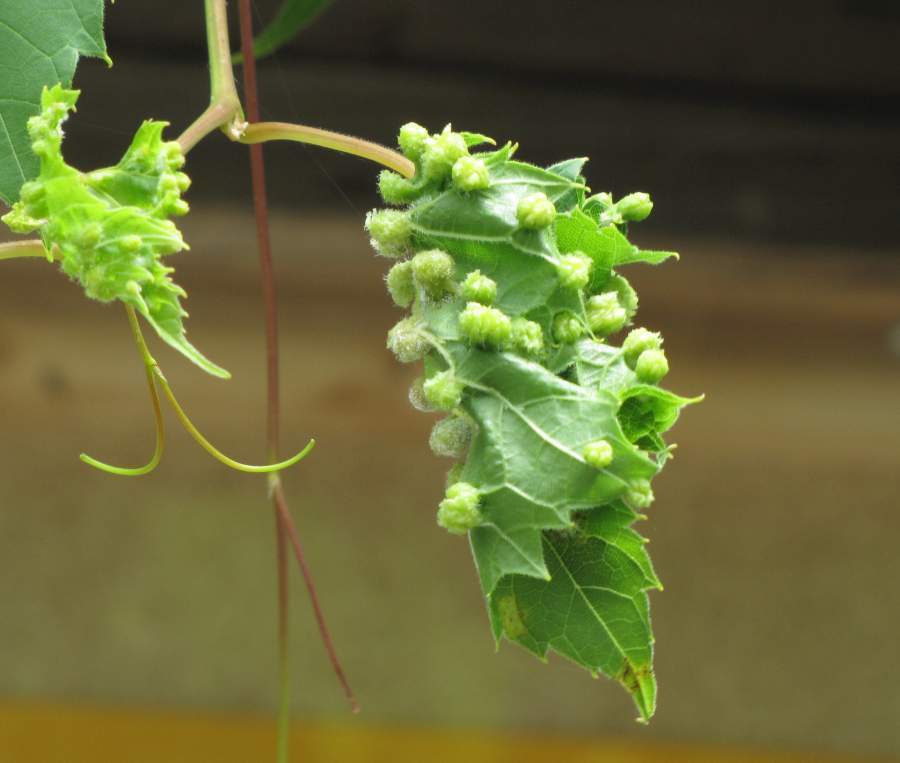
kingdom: Animalia
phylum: Arthropoda
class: Insecta
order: Hemiptera
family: Phylloxeridae
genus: Daktulosphaira
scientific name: Daktulosphaira vitifoliae
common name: Grape phylloxera
